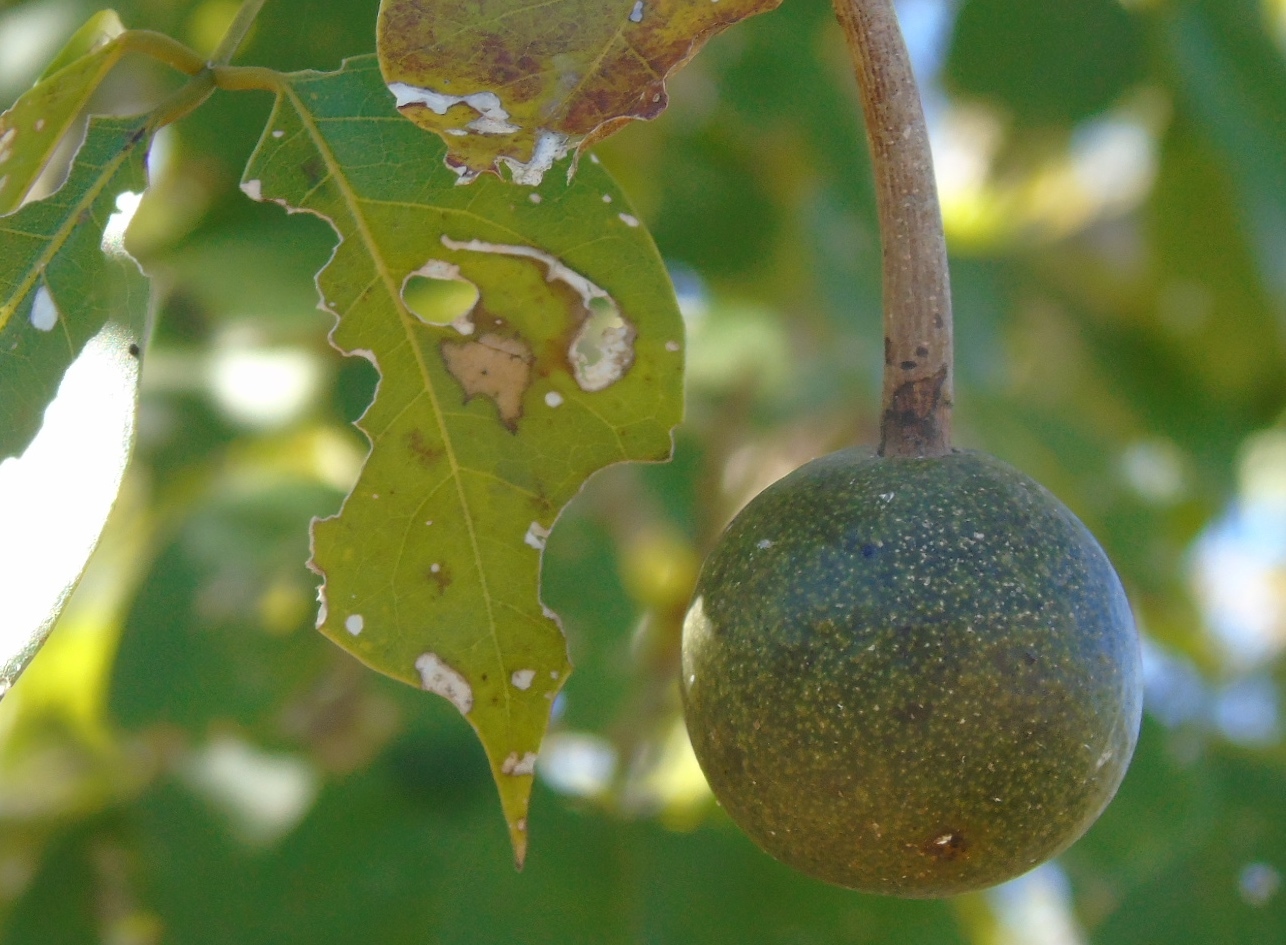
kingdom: Plantae
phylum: Tracheophyta
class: Magnoliopsida
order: Brassicales
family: Capparaceae
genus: Crateva
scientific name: Crateva tapia
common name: Garlic-pear
